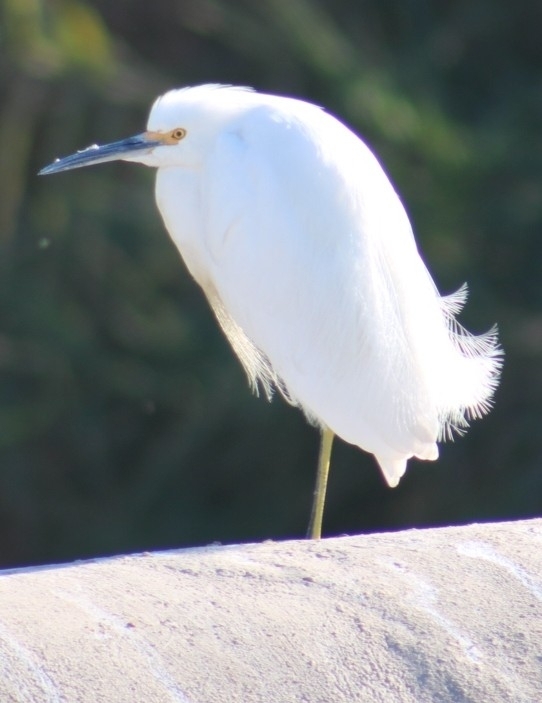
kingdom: Animalia
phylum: Chordata
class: Aves
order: Pelecaniformes
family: Ardeidae
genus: Egretta
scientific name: Egretta thula
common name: Snowy egret
